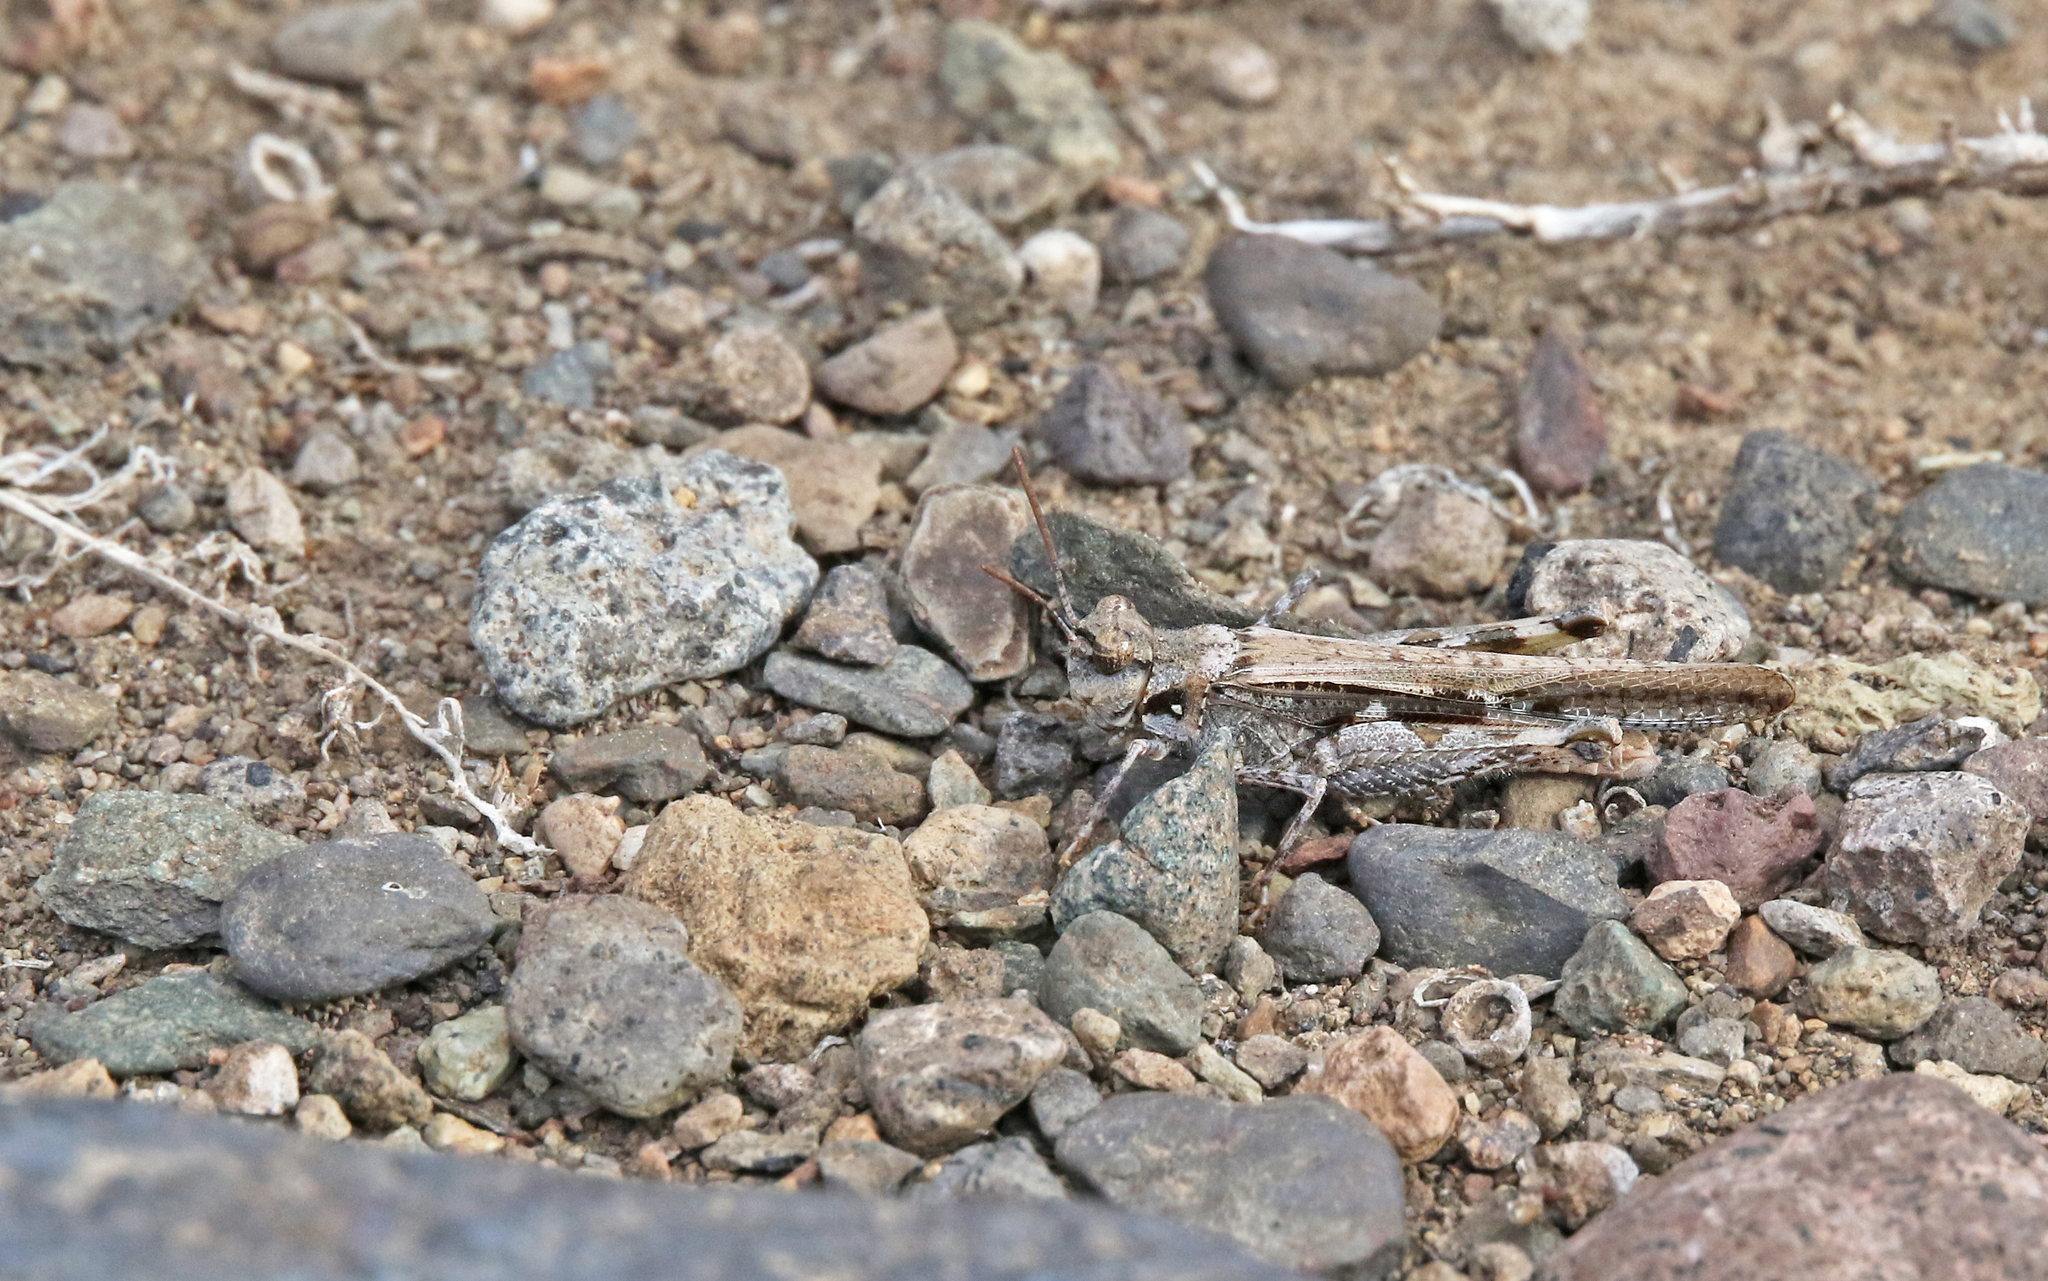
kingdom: Animalia
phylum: Arthropoda
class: Insecta
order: Orthoptera
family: Acrididae
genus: Acrotylus
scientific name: Acrotylus insubricus
